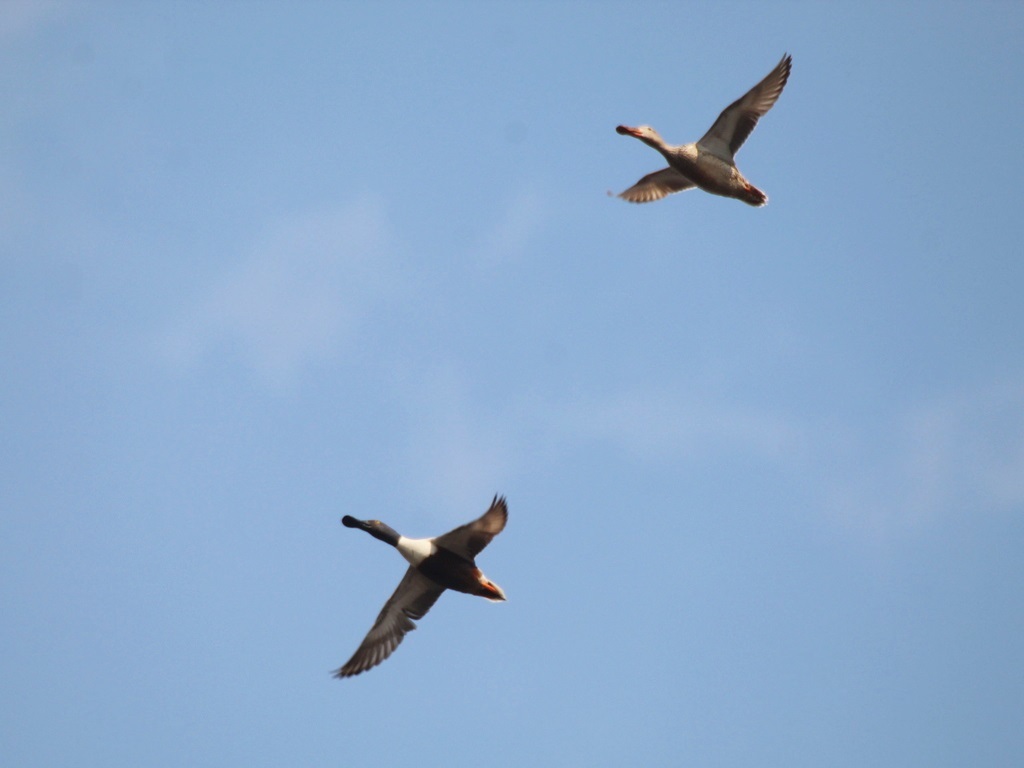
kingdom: Animalia
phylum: Chordata
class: Aves
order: Anseriformes
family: Anatidae
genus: Spatula
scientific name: Spatula clypeata
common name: Northern shoveler
